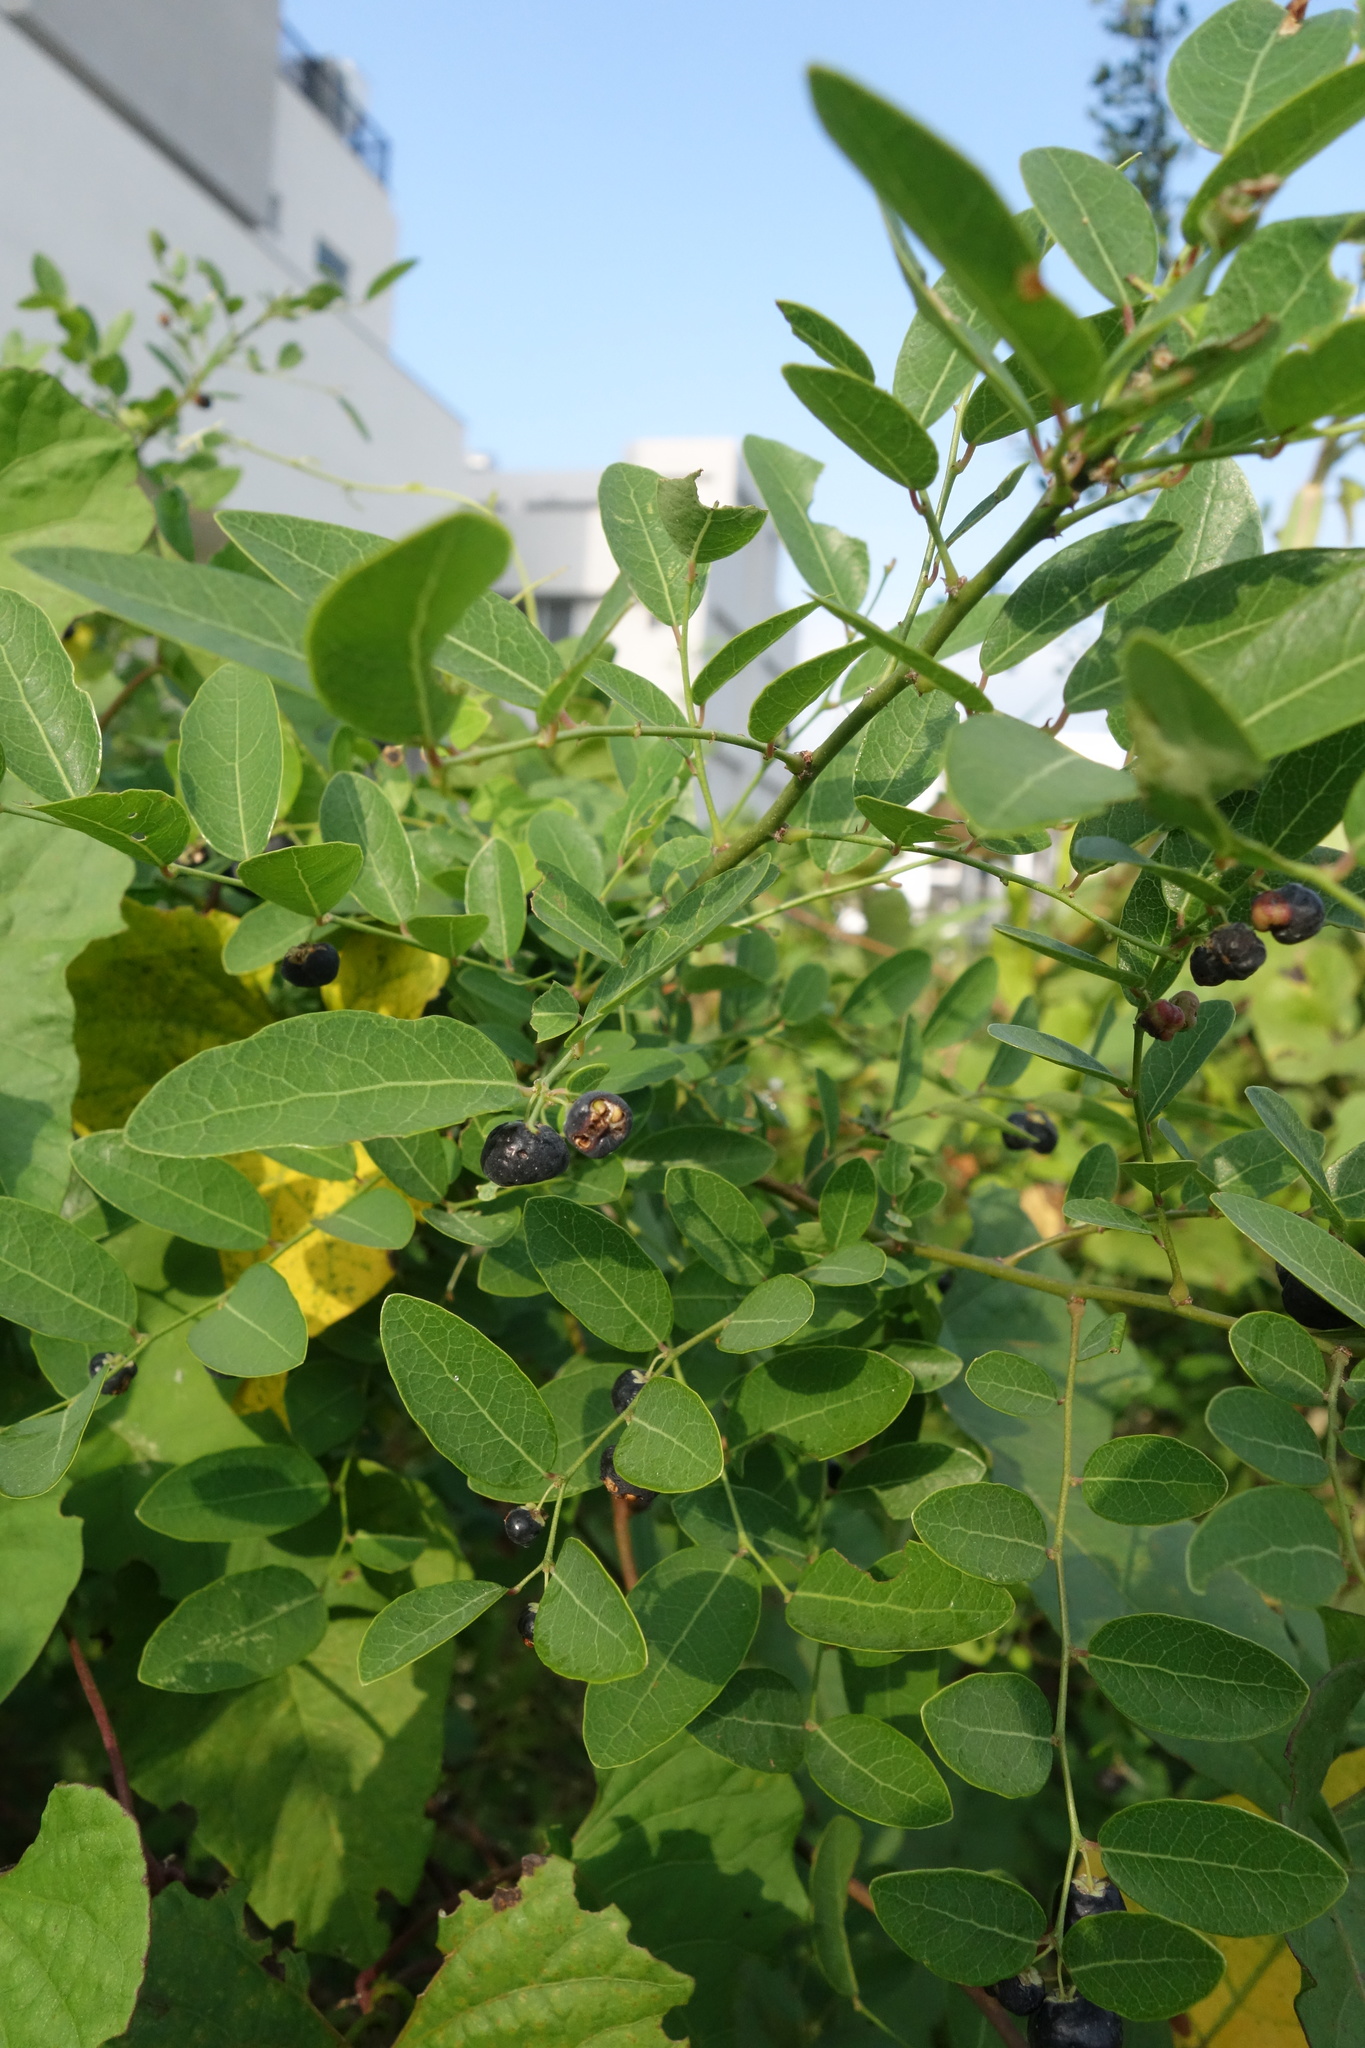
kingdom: Plantae
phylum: Tracheophyta
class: Magnoliopsida
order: Malpighiales
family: Phyllanthaceae
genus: Phyllanthus
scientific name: Phyllanthus reticulatus
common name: Potato bush
